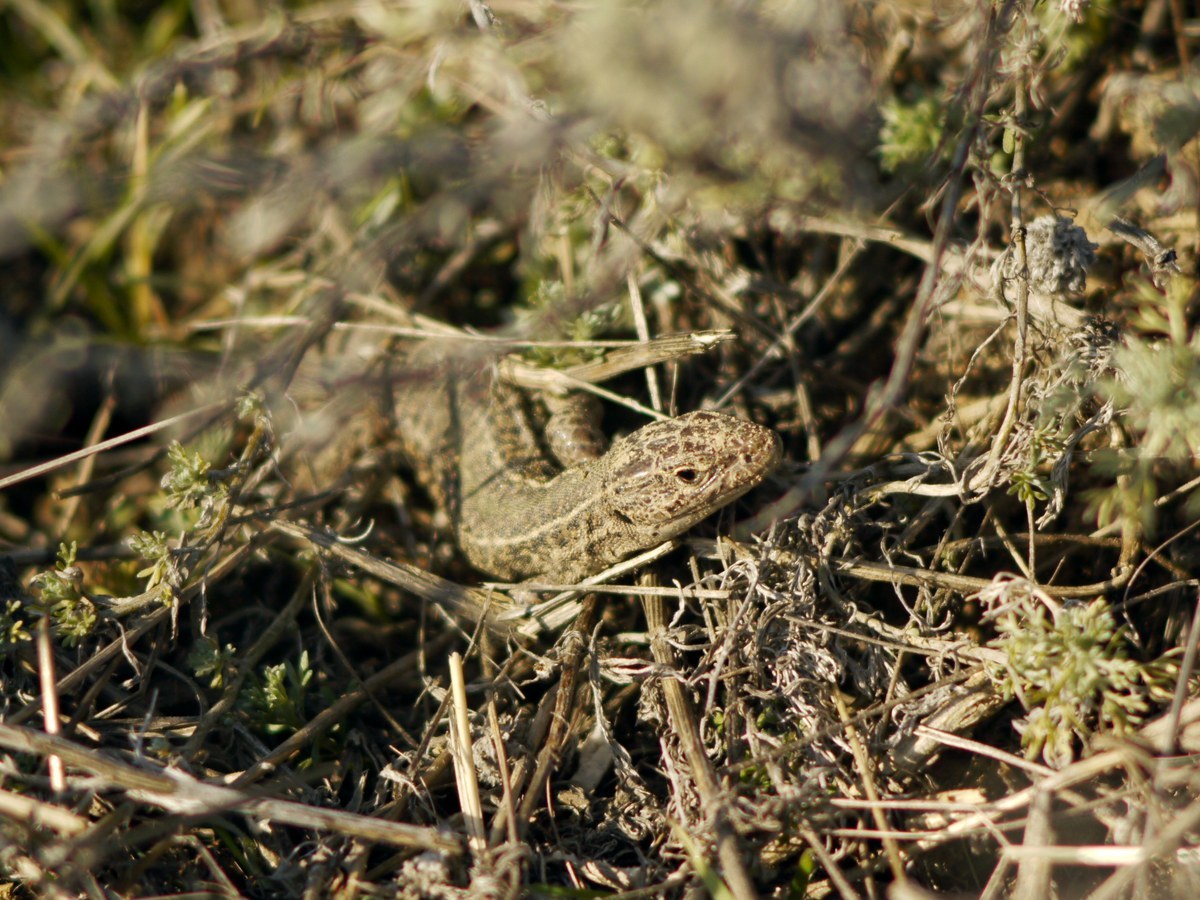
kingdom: Animalia
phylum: Chordata
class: Squamata
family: Lacertidae
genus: Podarcis
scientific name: Podarcis tauricus
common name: Balkan wall lizard
